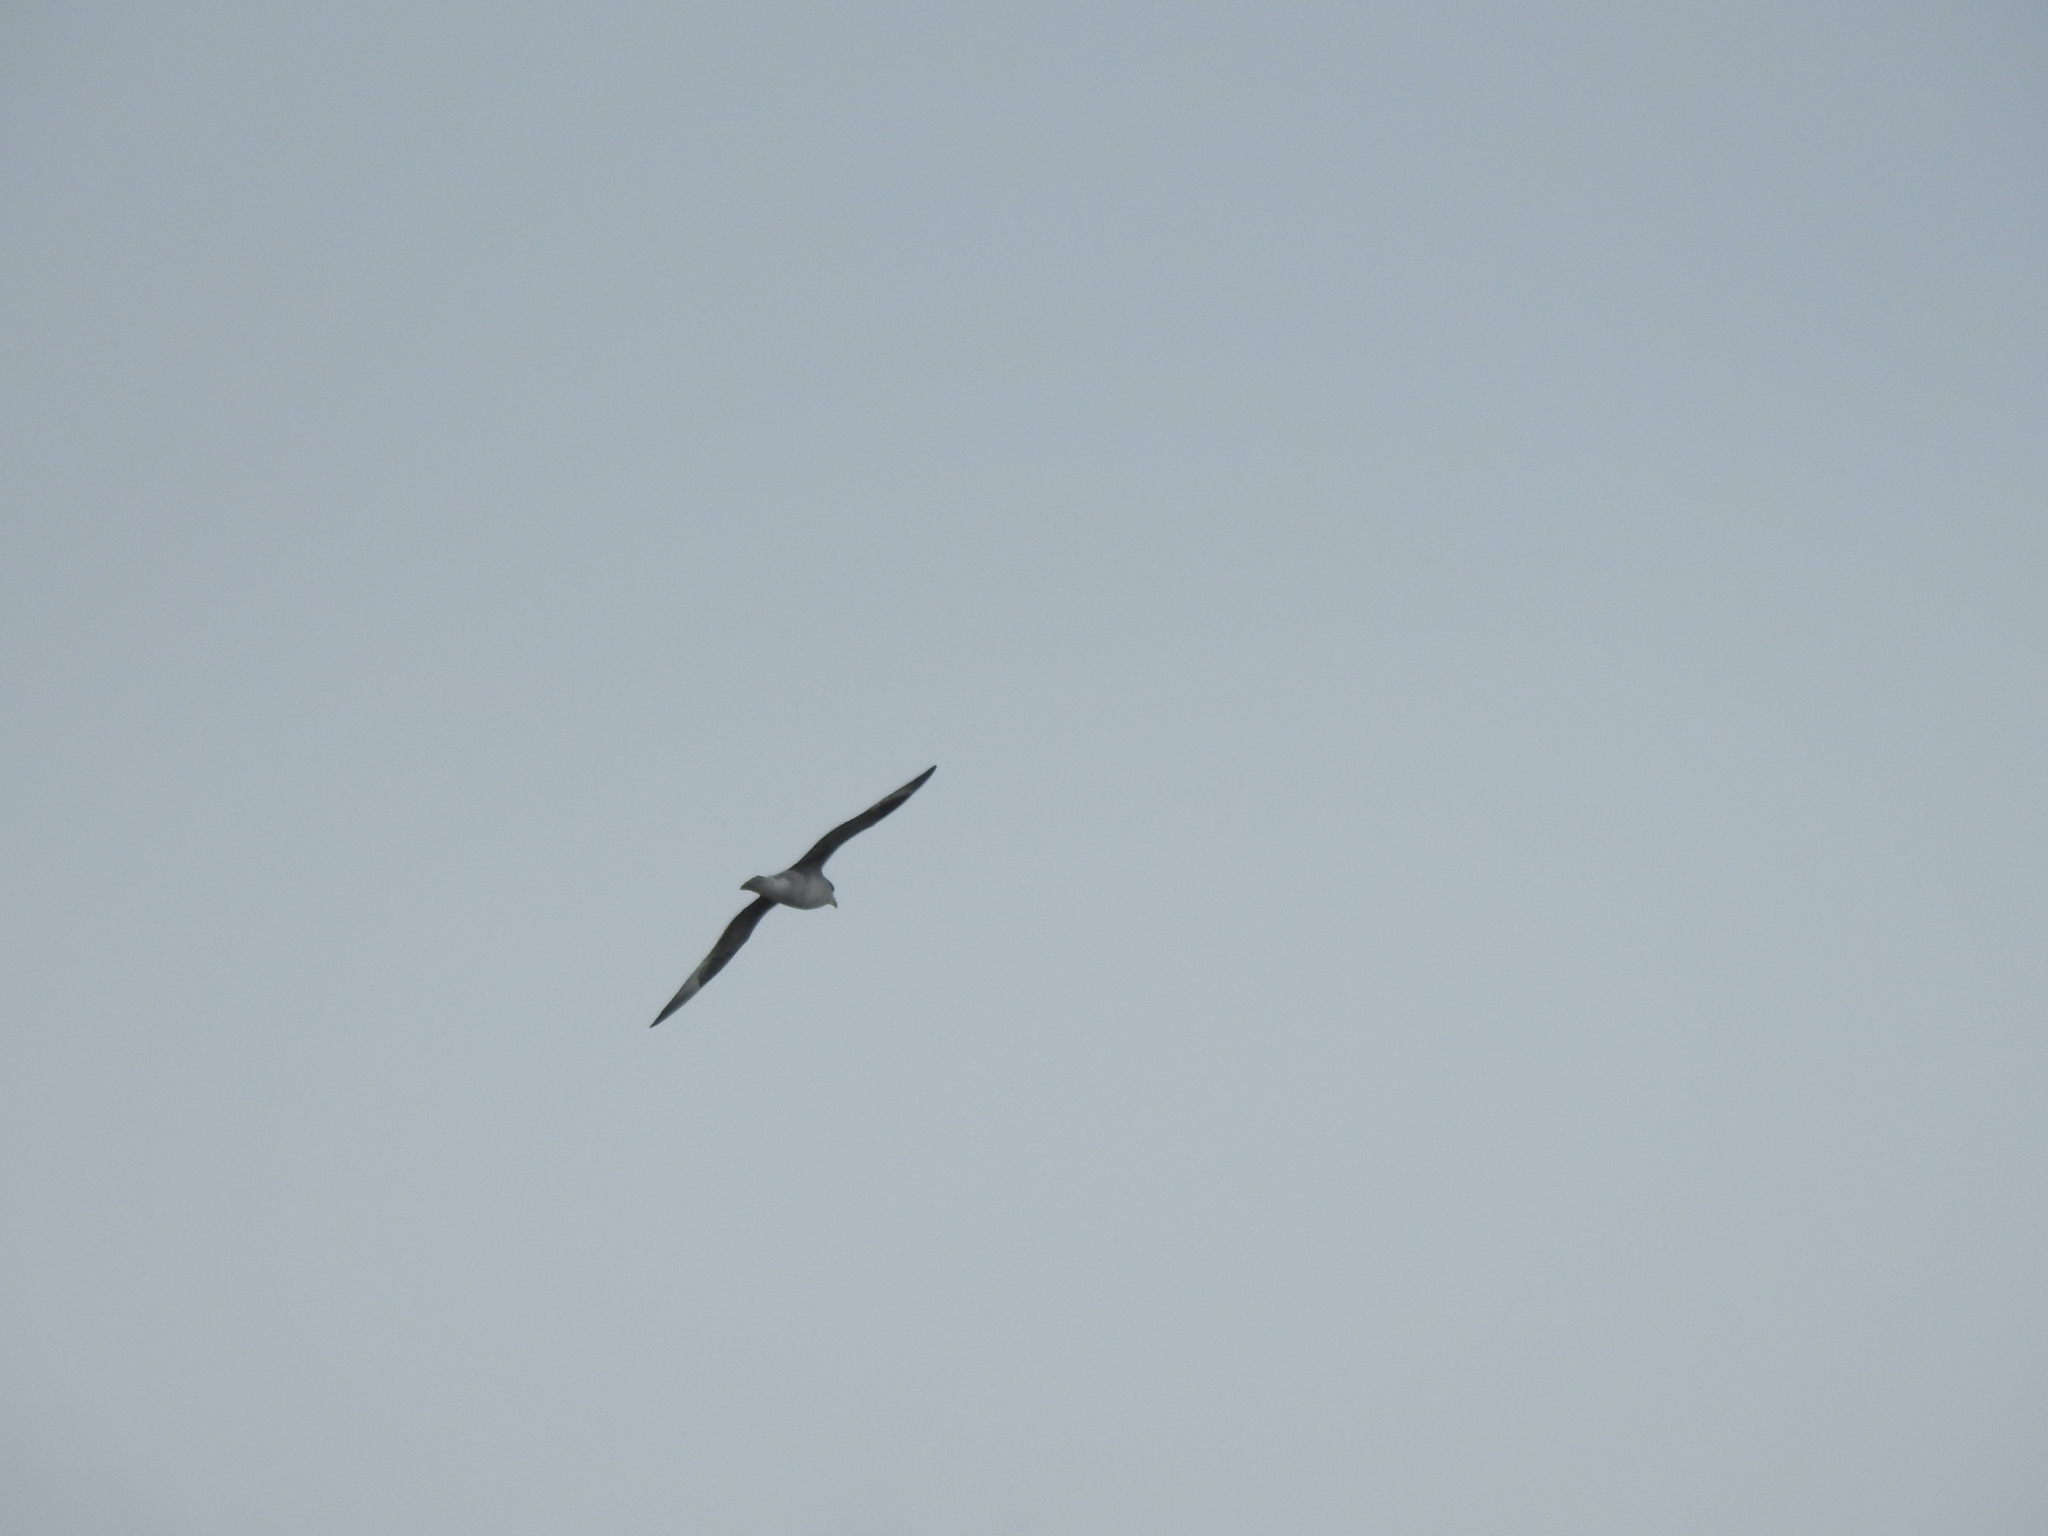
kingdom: Animalia
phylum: Chordata
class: Aves
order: Procellariiformes
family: Procellariidae
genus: Fulmarus
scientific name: Fulmarus glacialis
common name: Northern fulmar
